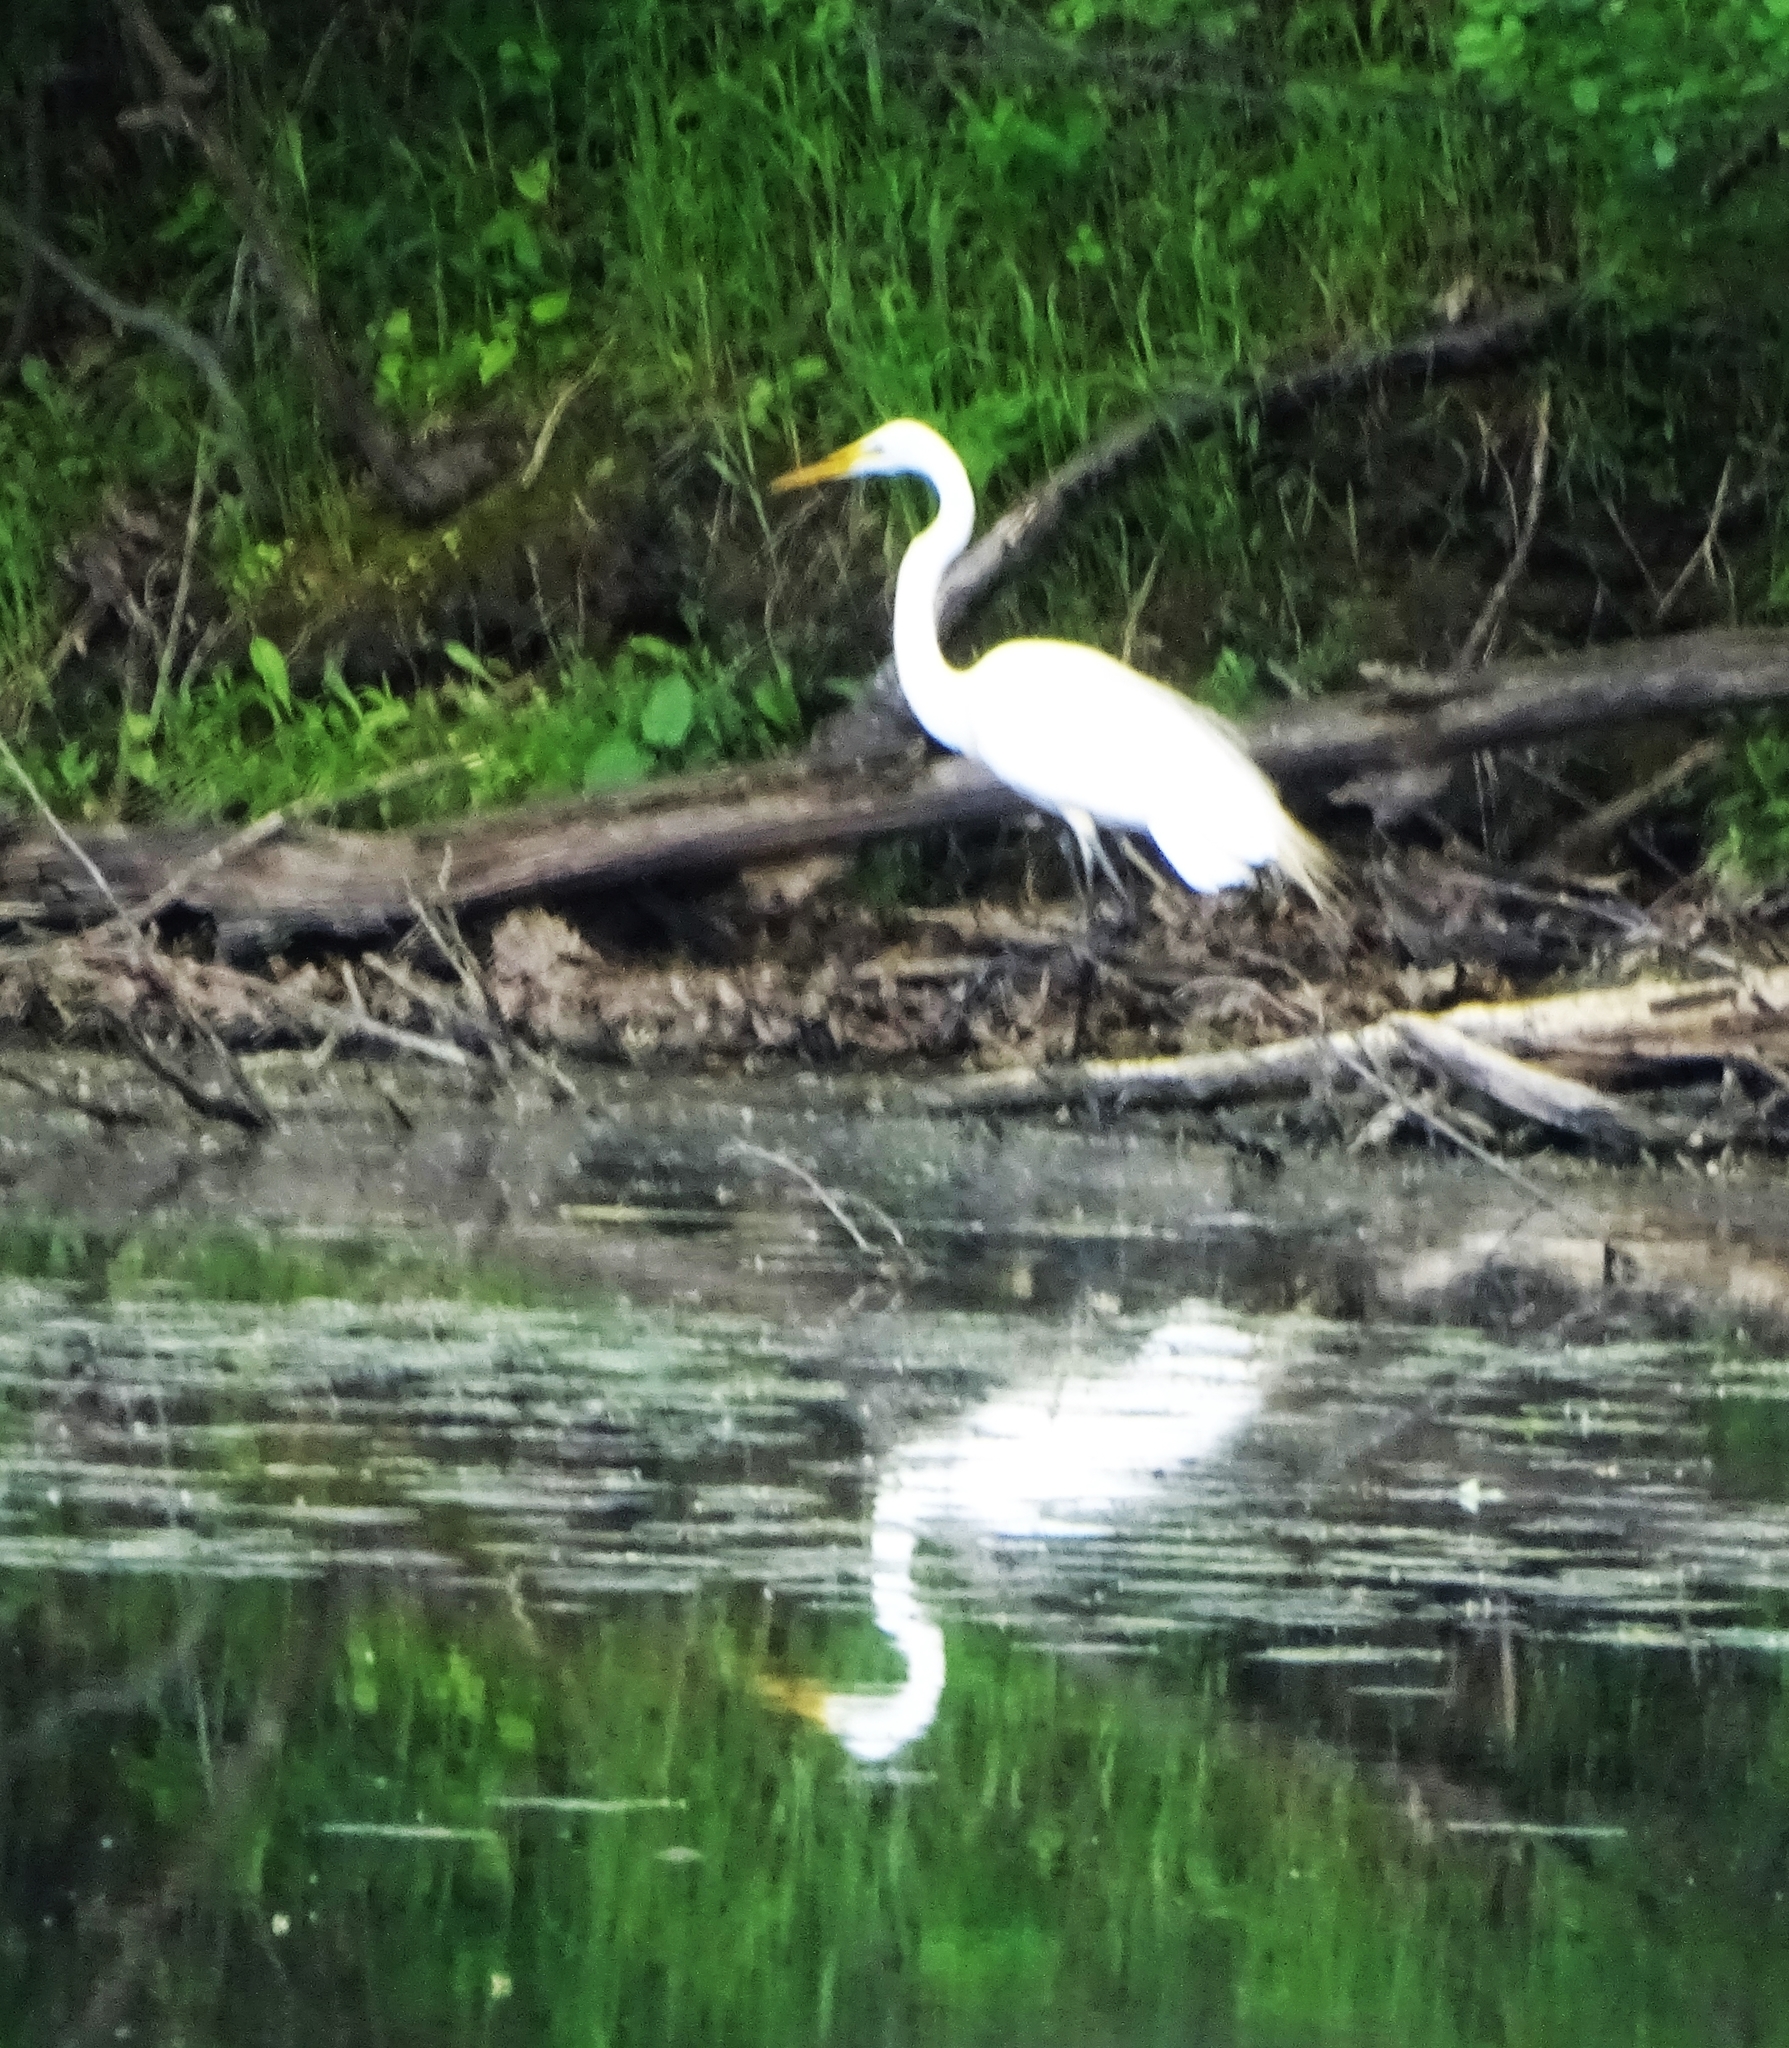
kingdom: Animalia
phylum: Chordata
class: Aves
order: Pelecaniformes
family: Ardeidae
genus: Ardea
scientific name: Ardea alba
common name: Great egret
